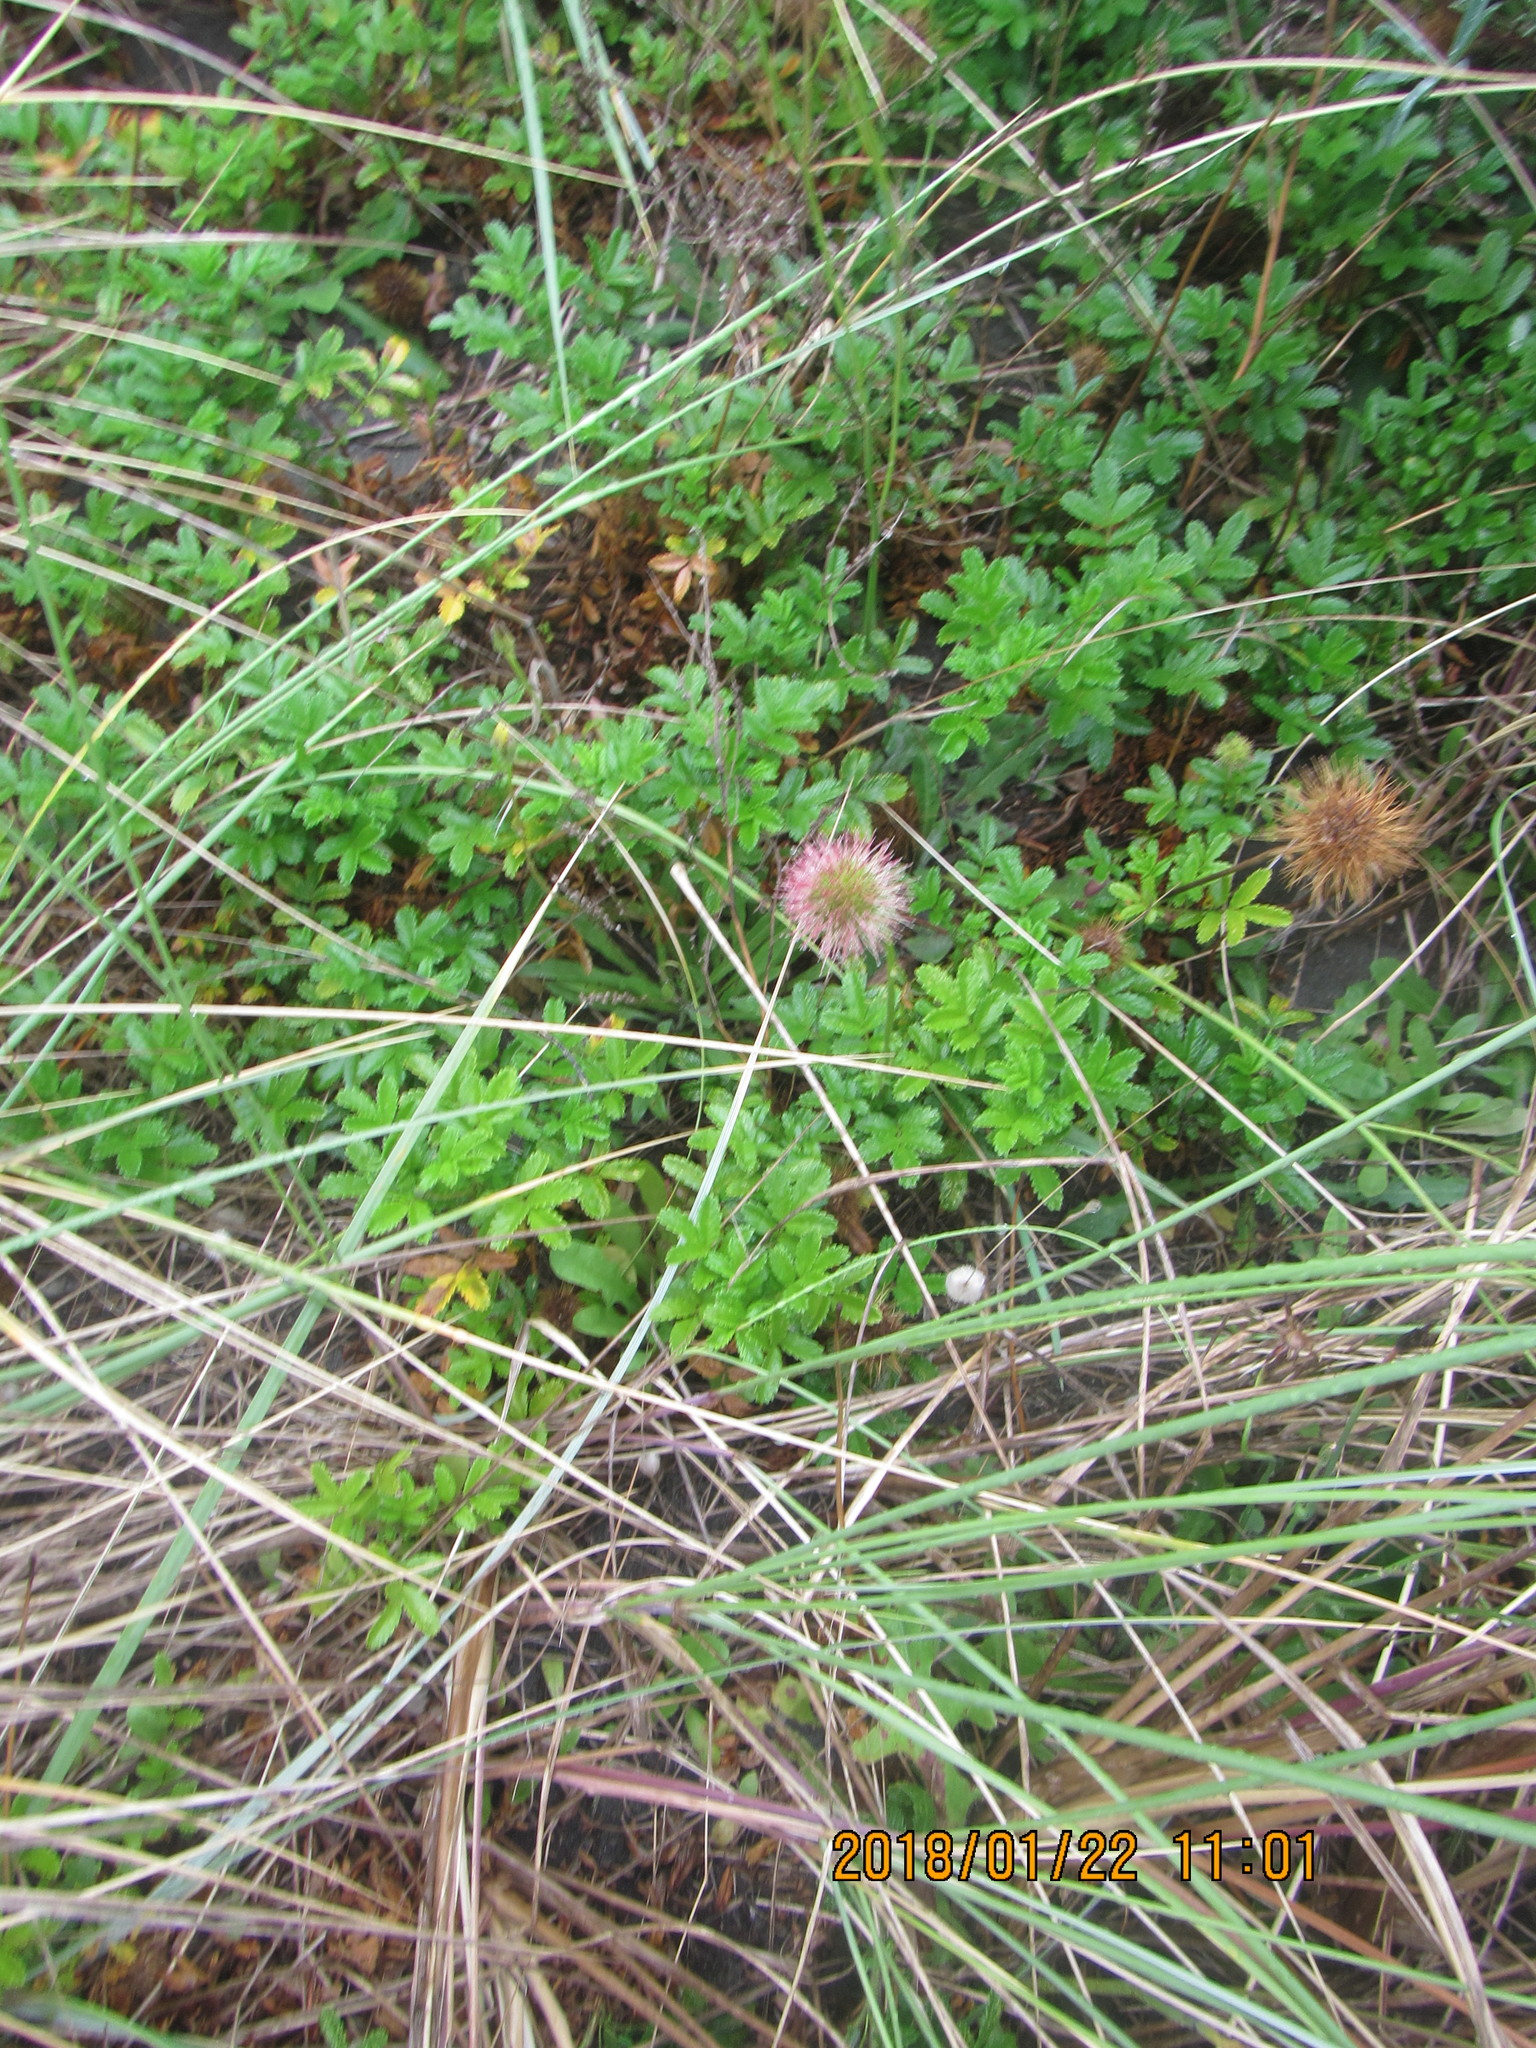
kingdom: Plantae
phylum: Tracheophyta
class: Magnoliopsida
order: Rosales
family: Rosaceae
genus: Acaena
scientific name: Acaena novae-zelandiae
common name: Pirri-pirri-bur
